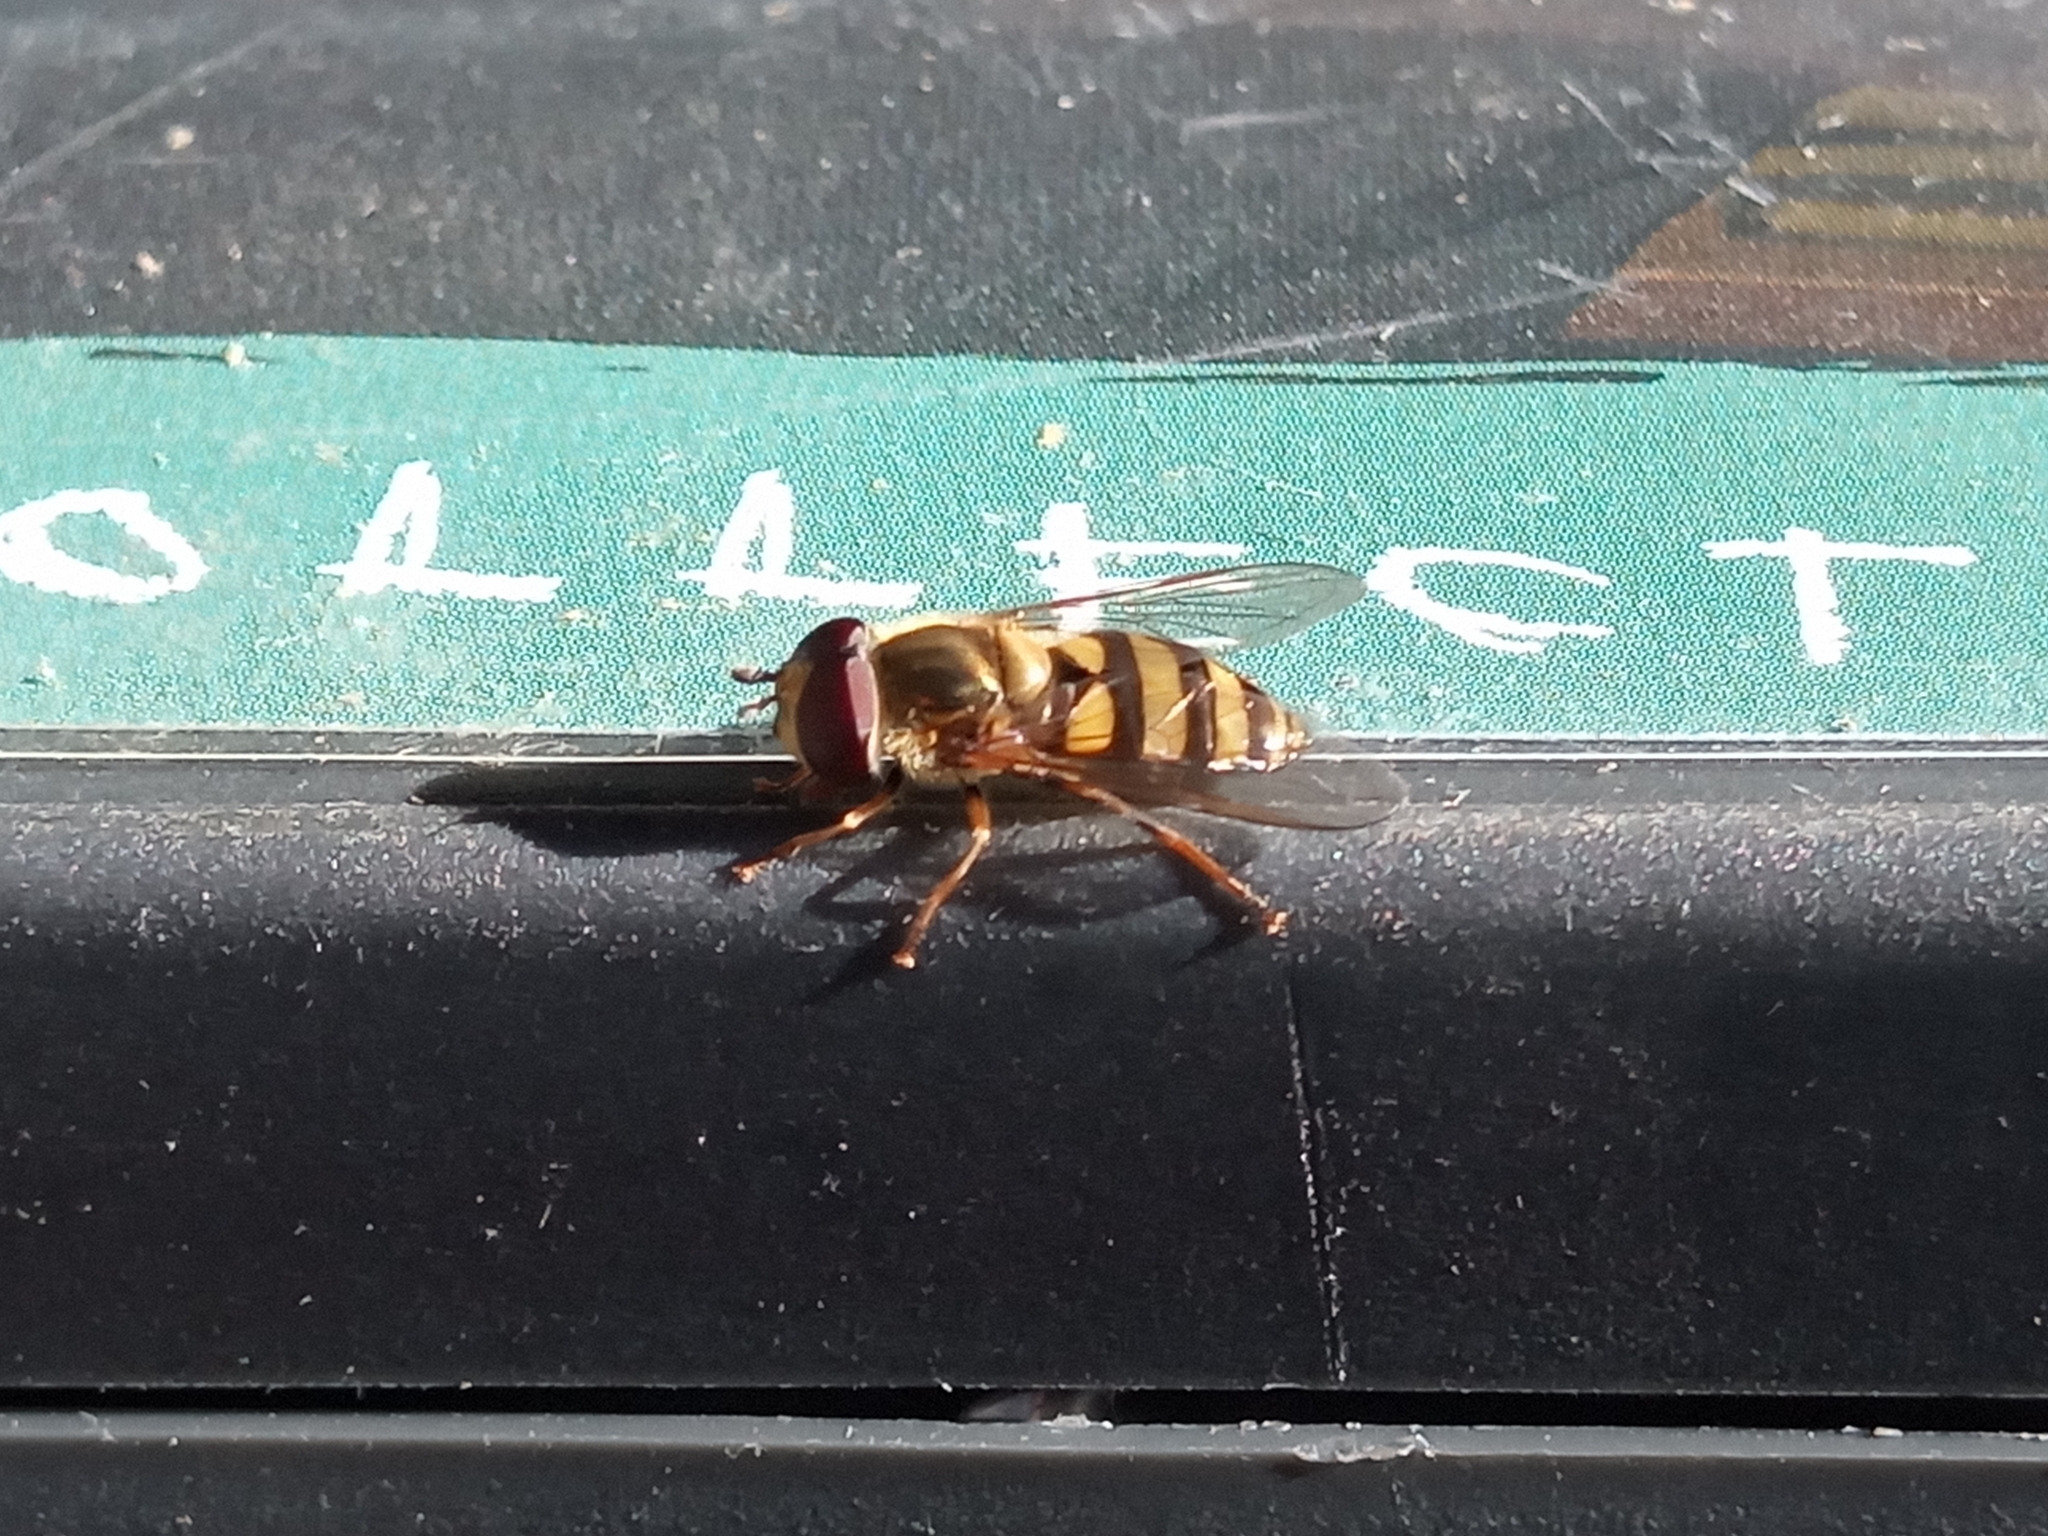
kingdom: Animalia
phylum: Arthropoda
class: Insecta
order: Diptera
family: Syrphidae
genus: Eupeodes
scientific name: Eupeodes
